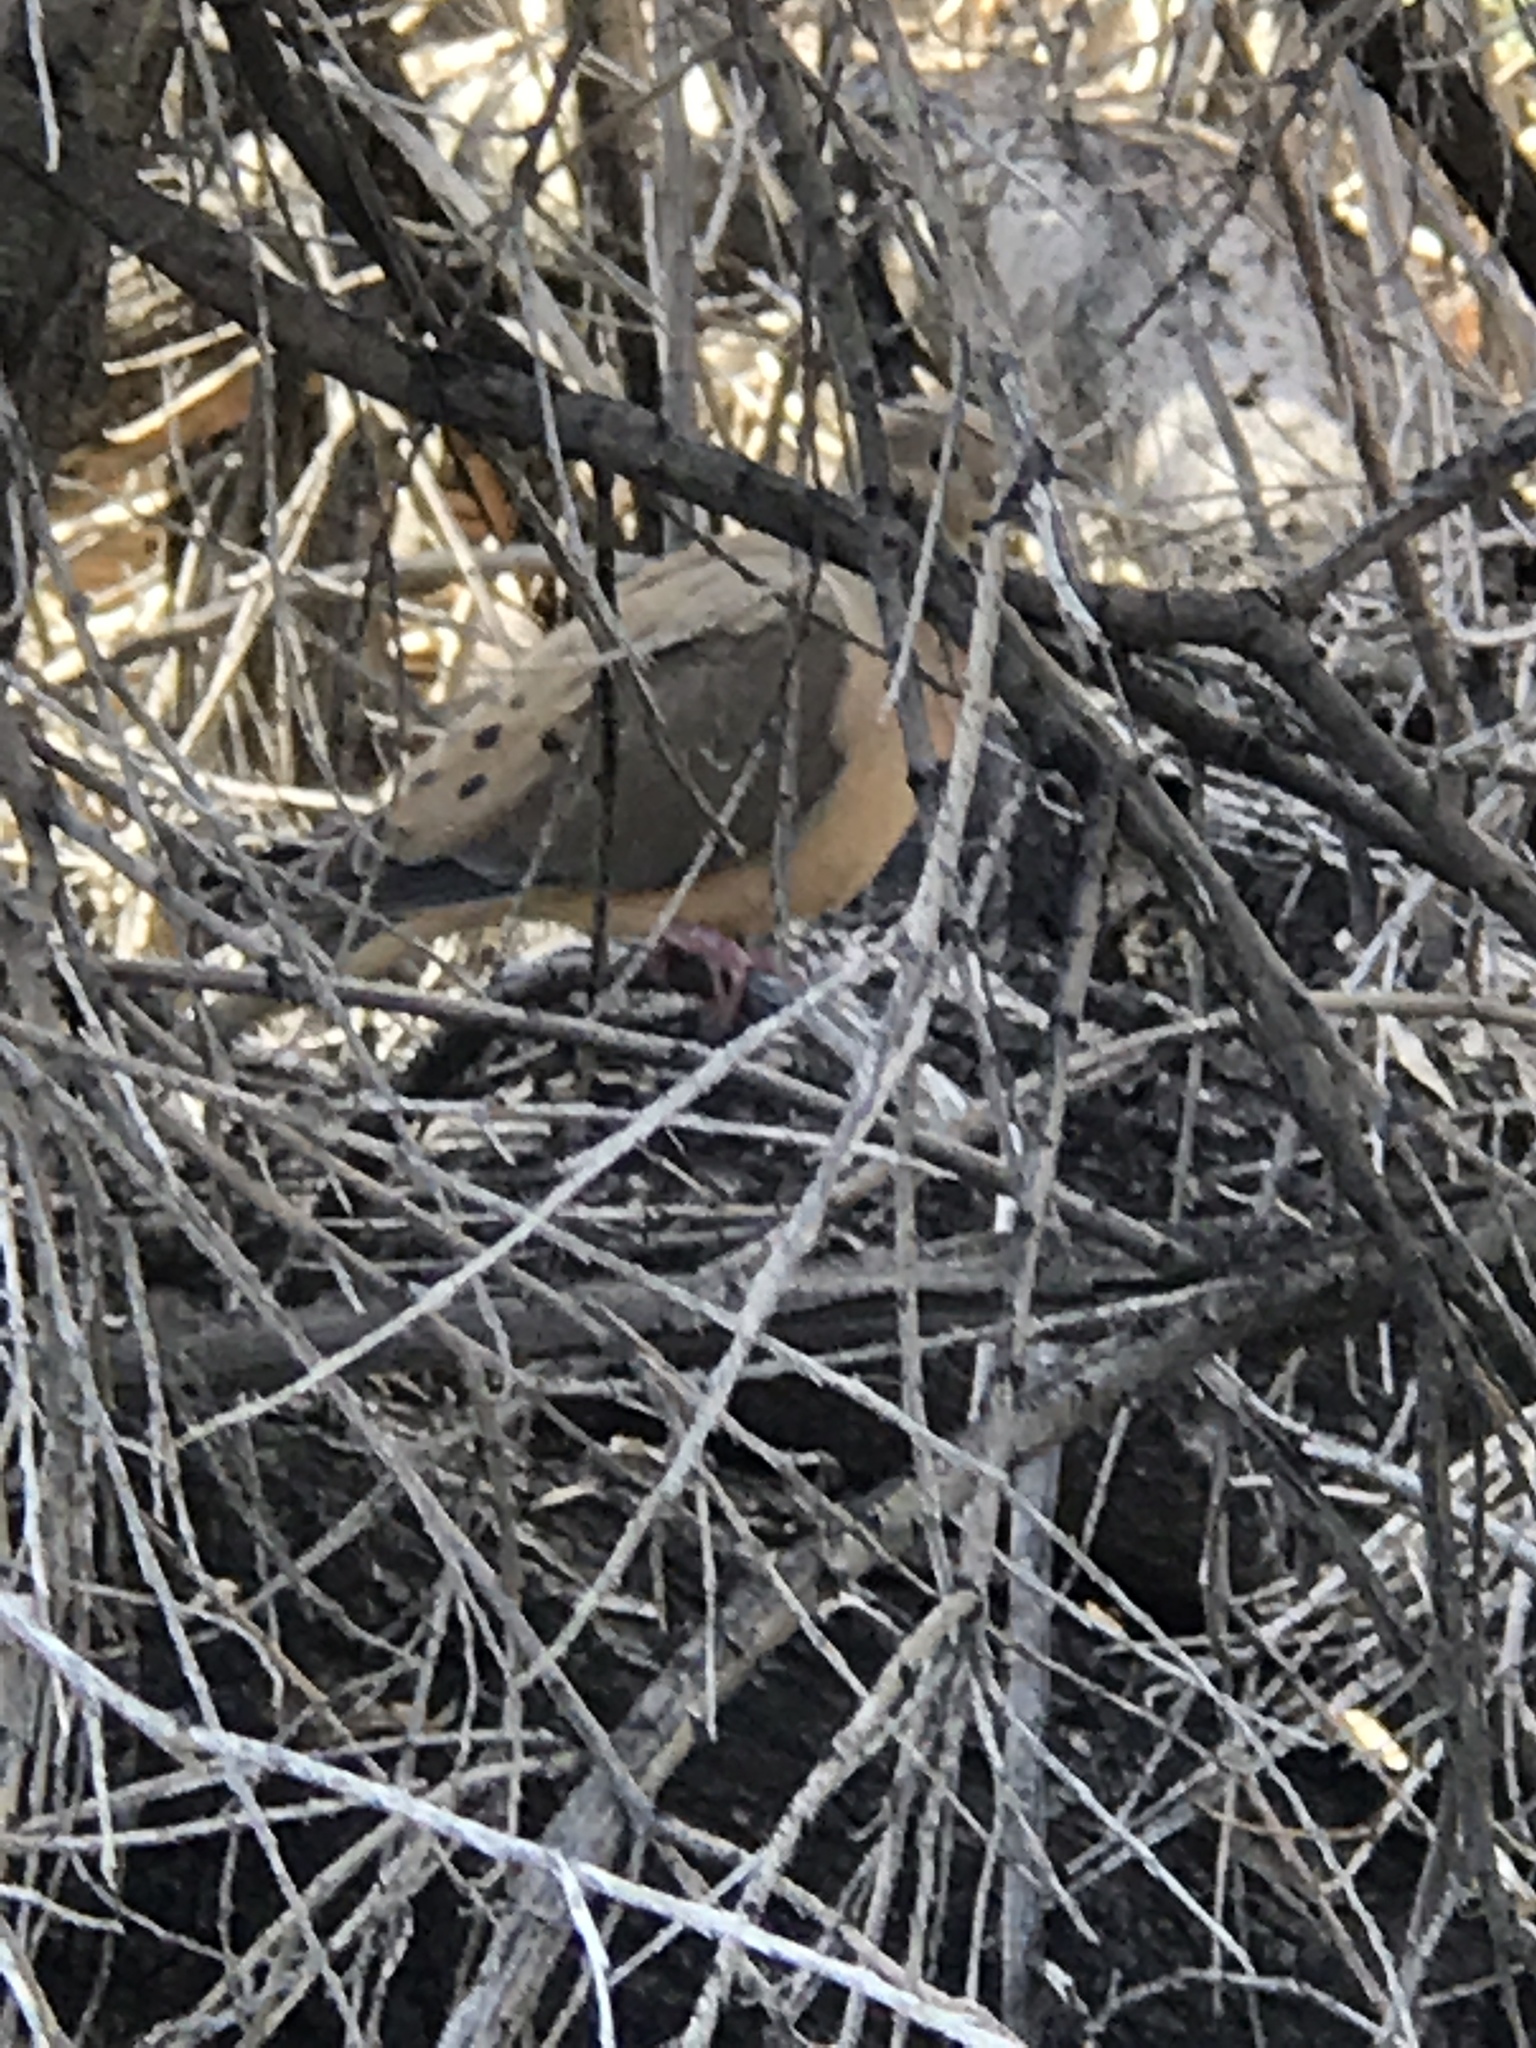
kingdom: Animalia
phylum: Chordata
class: Aves
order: Columbiformes
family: Columbidae
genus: Zenaida
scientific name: Zenaida macroura
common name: Mourning dove
